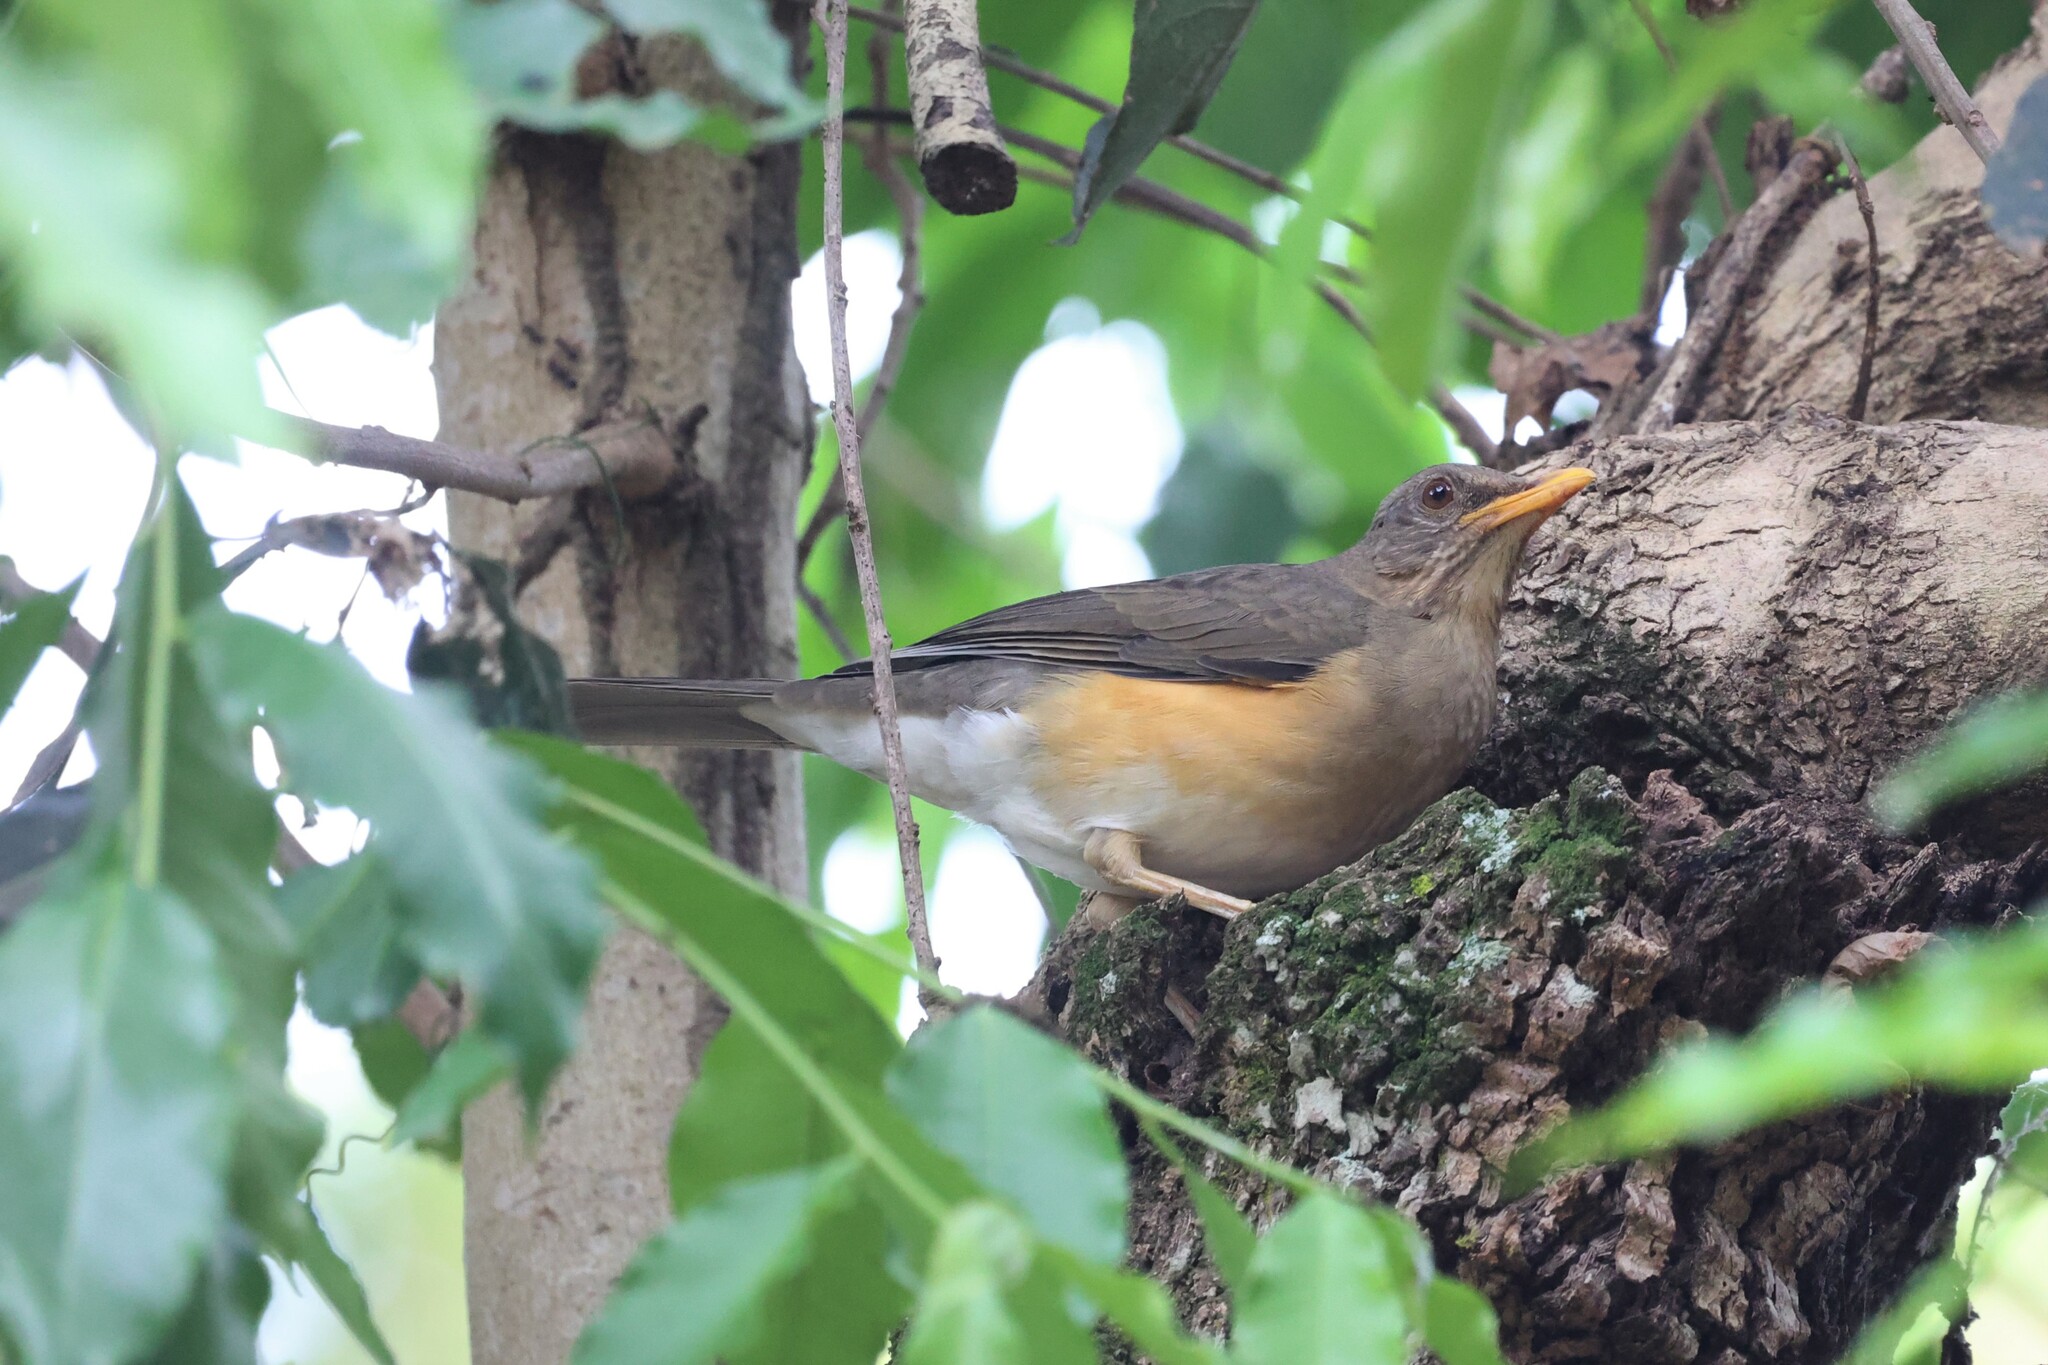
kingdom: Animalia
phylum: Chordata
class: Aves
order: Passeriformes
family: Turdidae
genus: Turdus
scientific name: Turdus pelios
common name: African thrush
